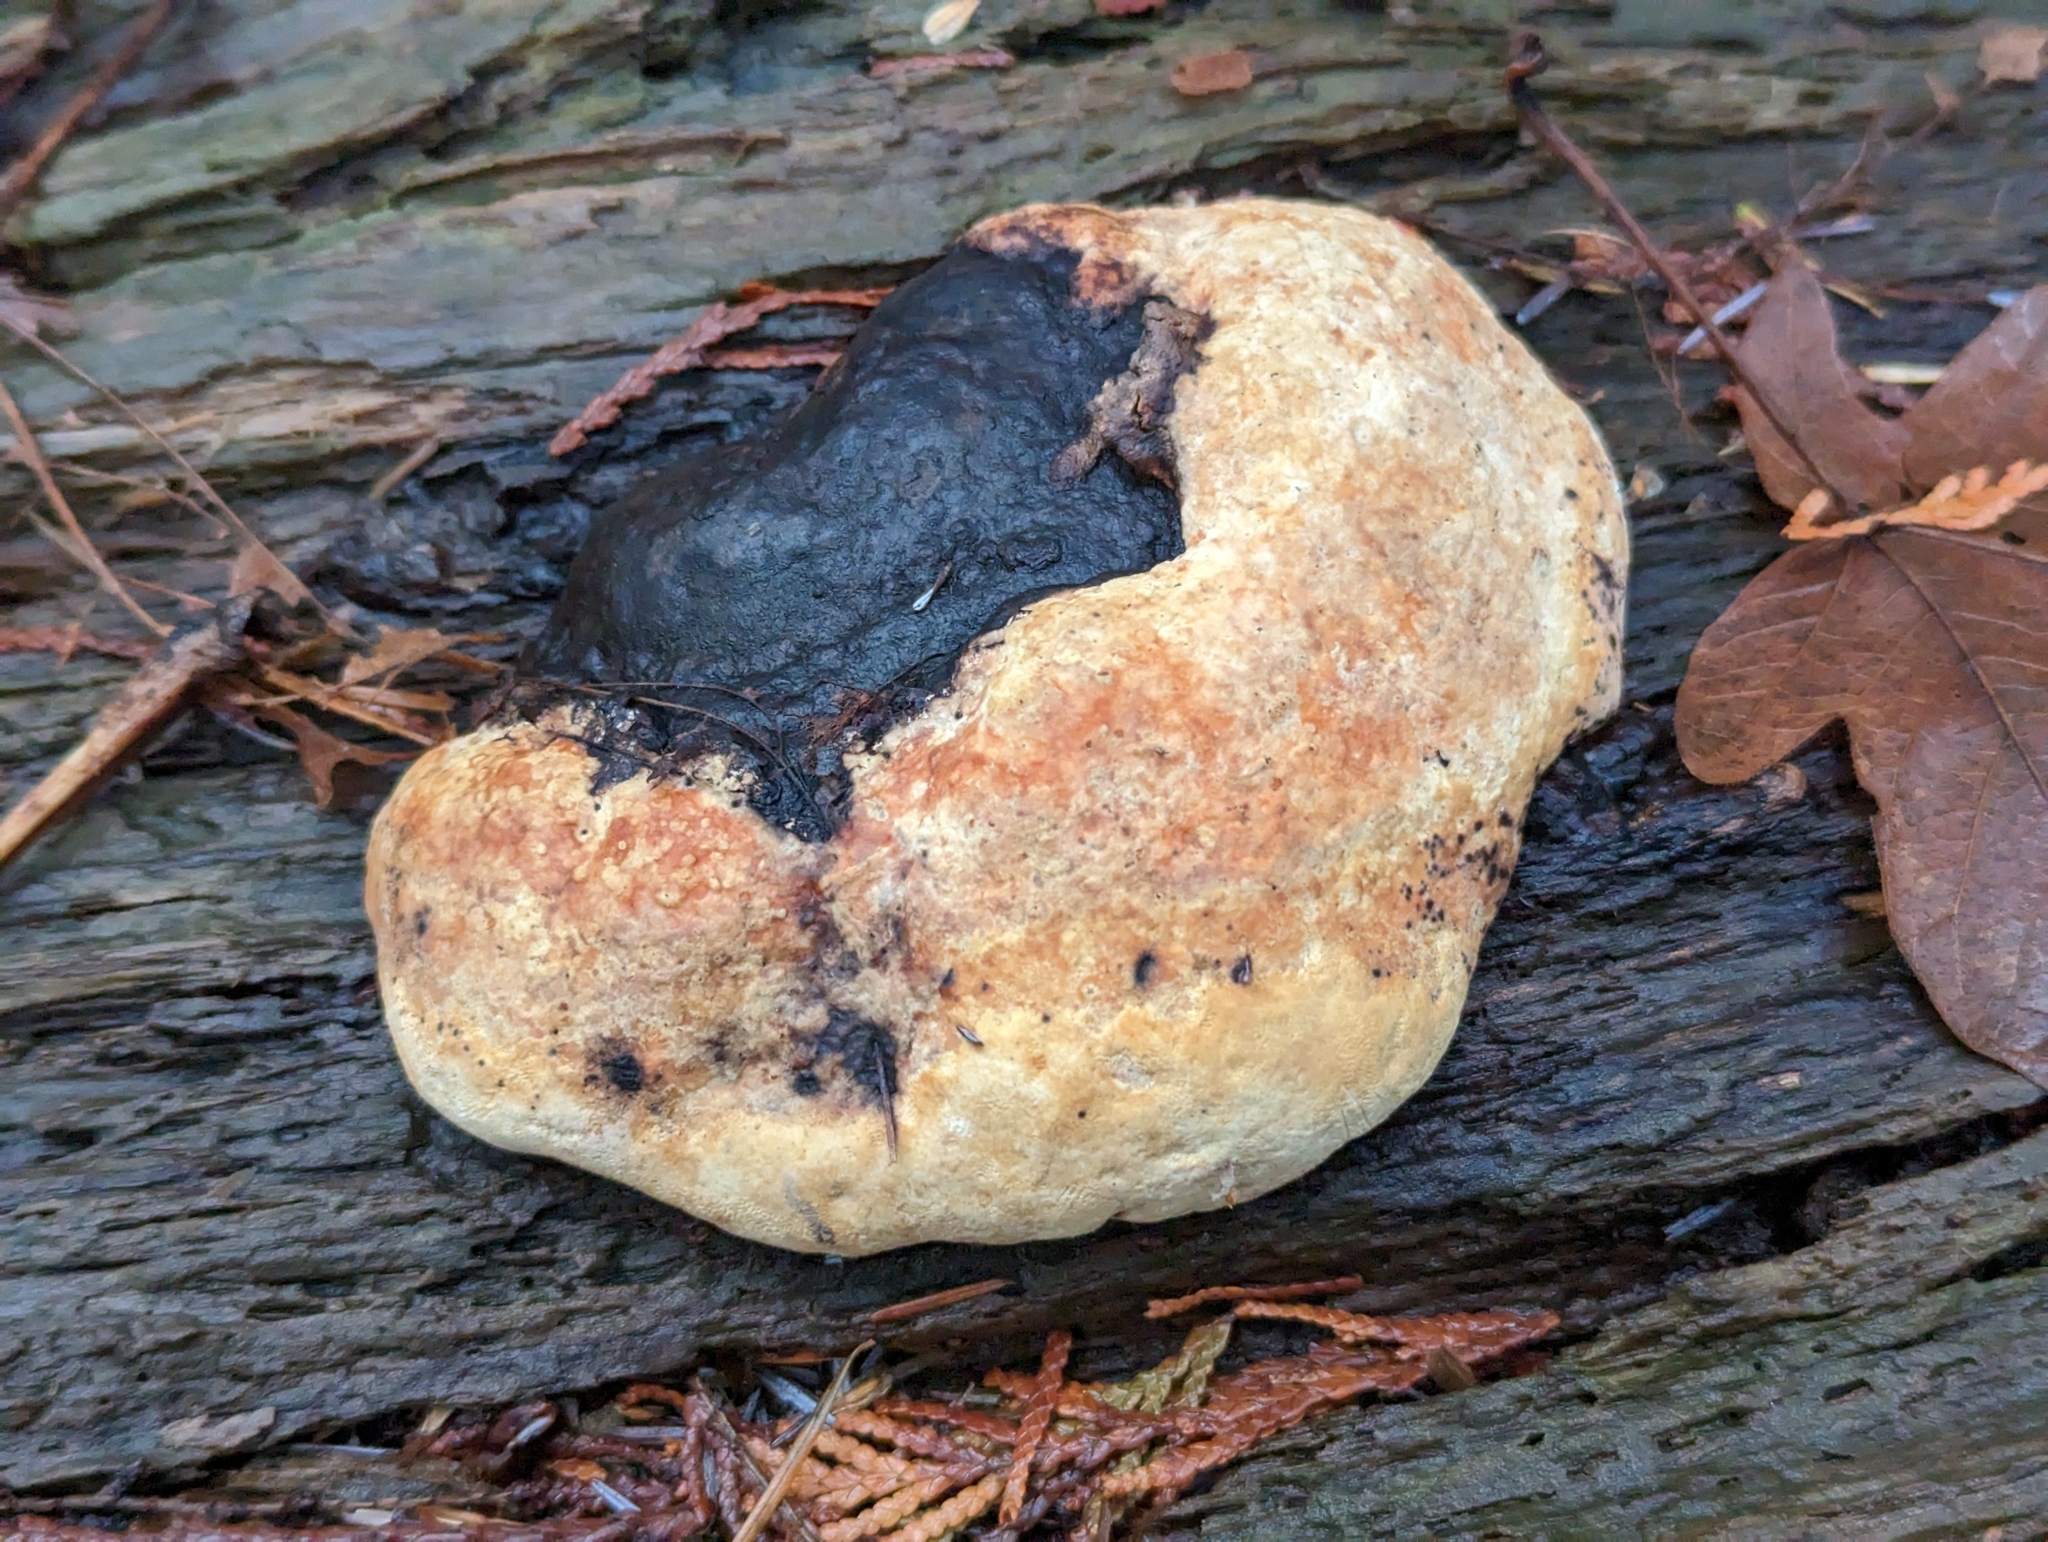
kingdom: Fungi
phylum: Basidiomycota
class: Agaricomycetes
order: Polyporales
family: Fomitopsidaceae
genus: Fomitopsis
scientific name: Fomitopsis mounceae
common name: Northern red belt
